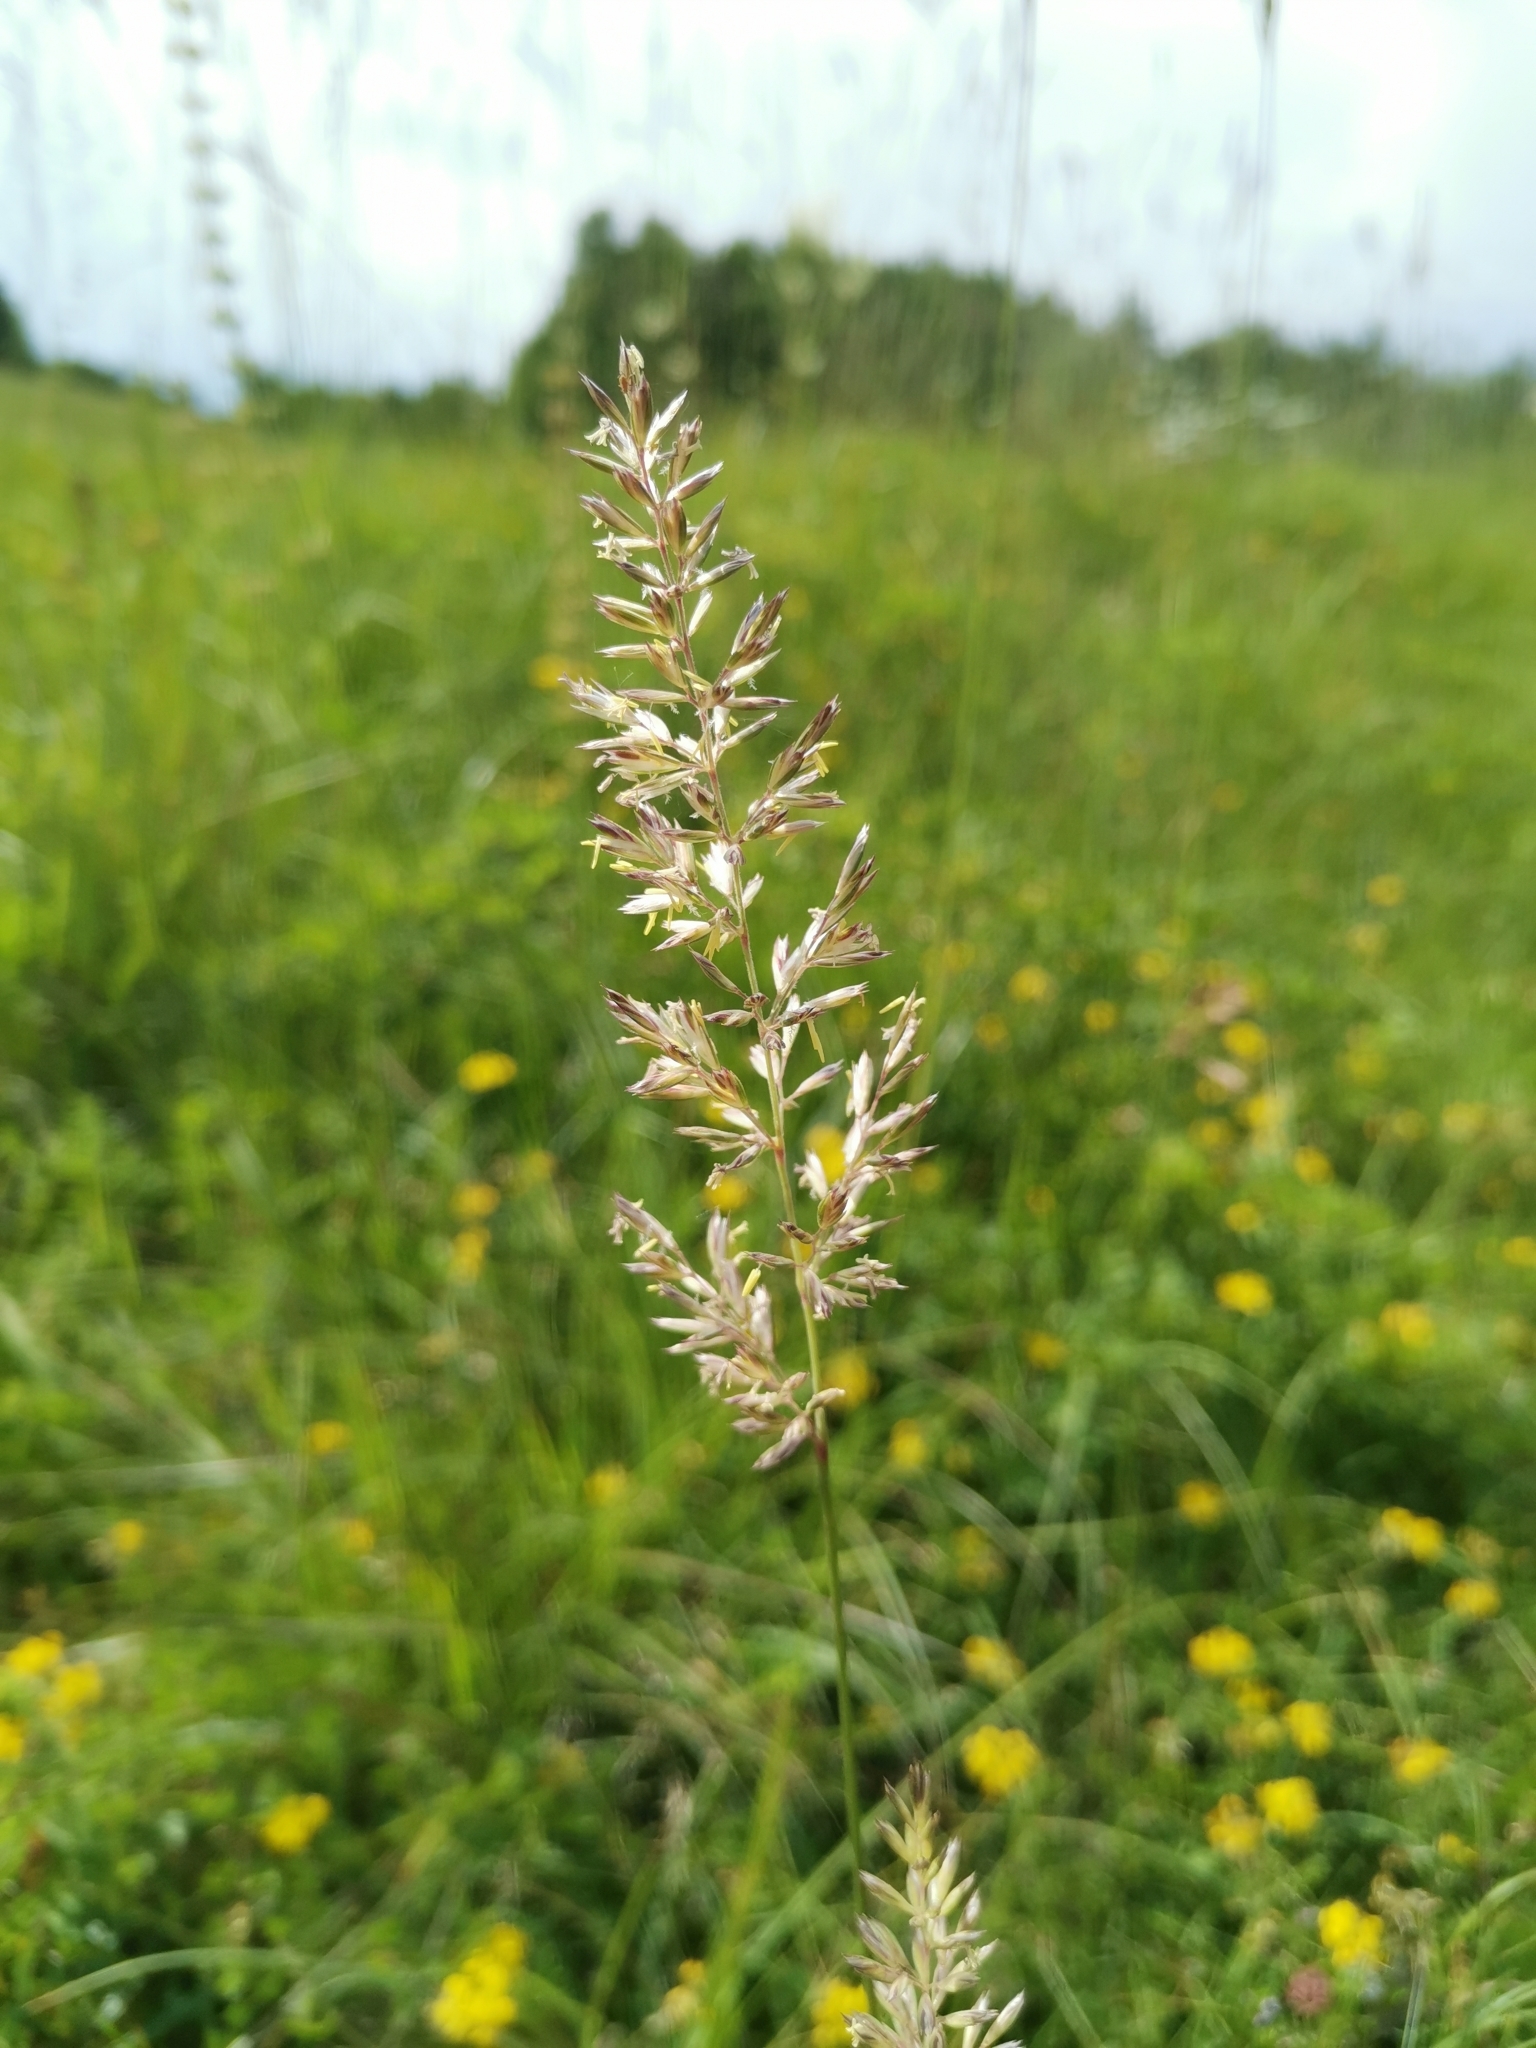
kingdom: Plantae
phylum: Tracheophyta
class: Liliopsida
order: Poales
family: Poaceae
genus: Koeleria
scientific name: Koeleria pyramidata
